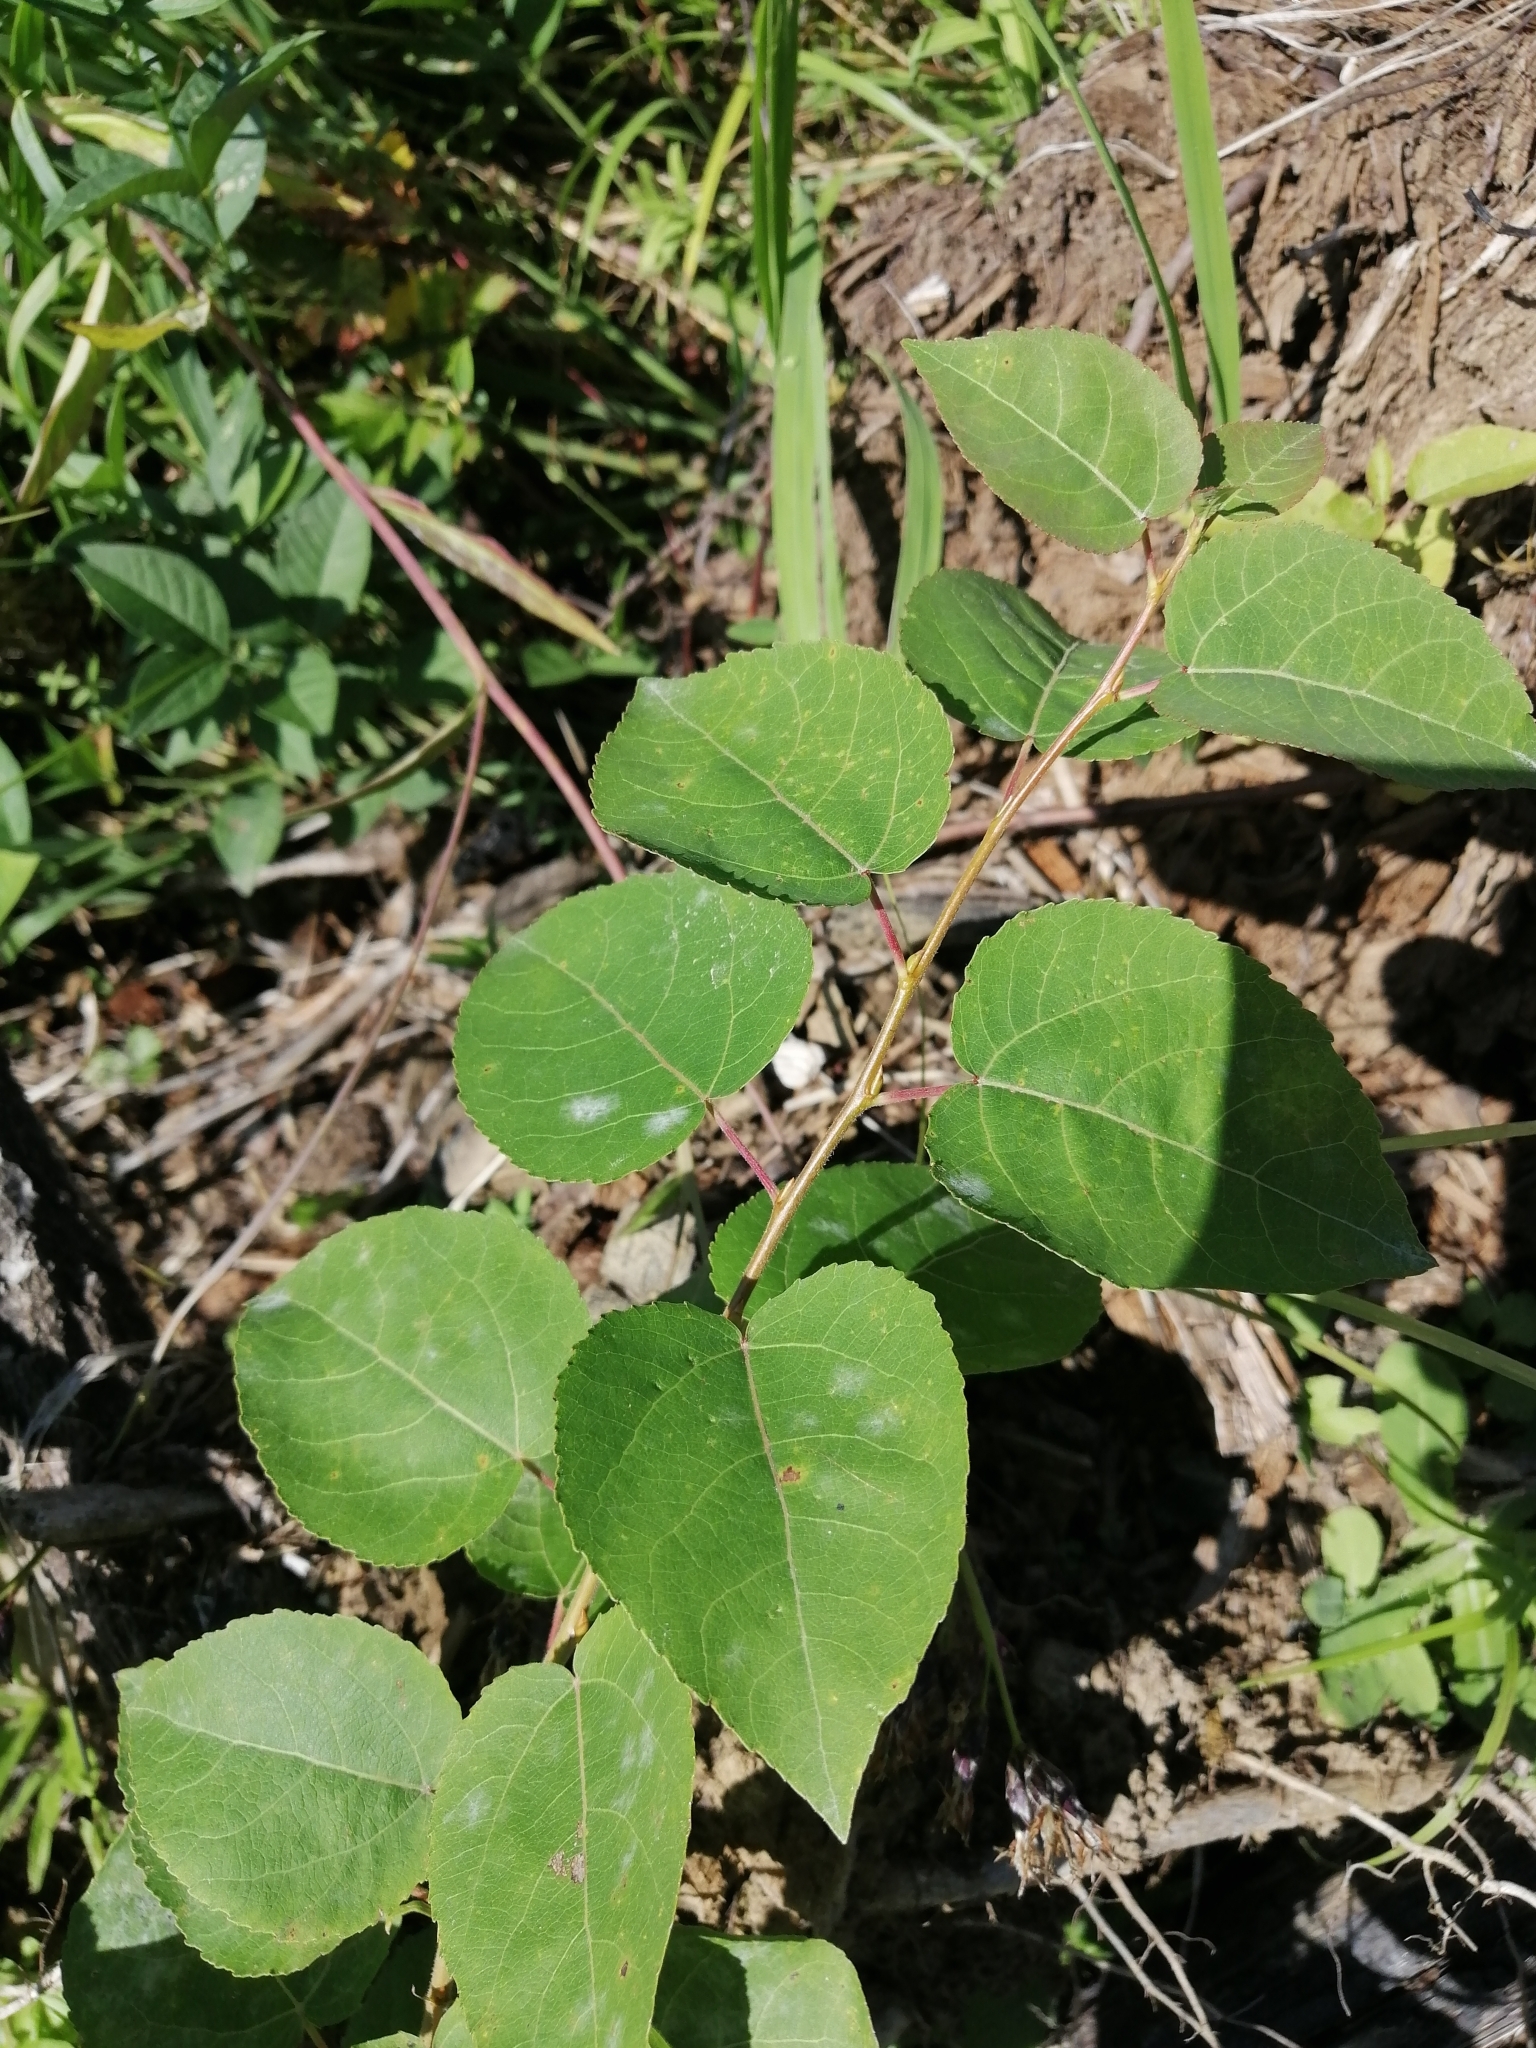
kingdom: Plantae
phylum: Tracheophyta
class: Magnoliopsida
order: Malpighiales
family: Salicaceae
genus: Populus
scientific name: Populus tremula
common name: European aspen
